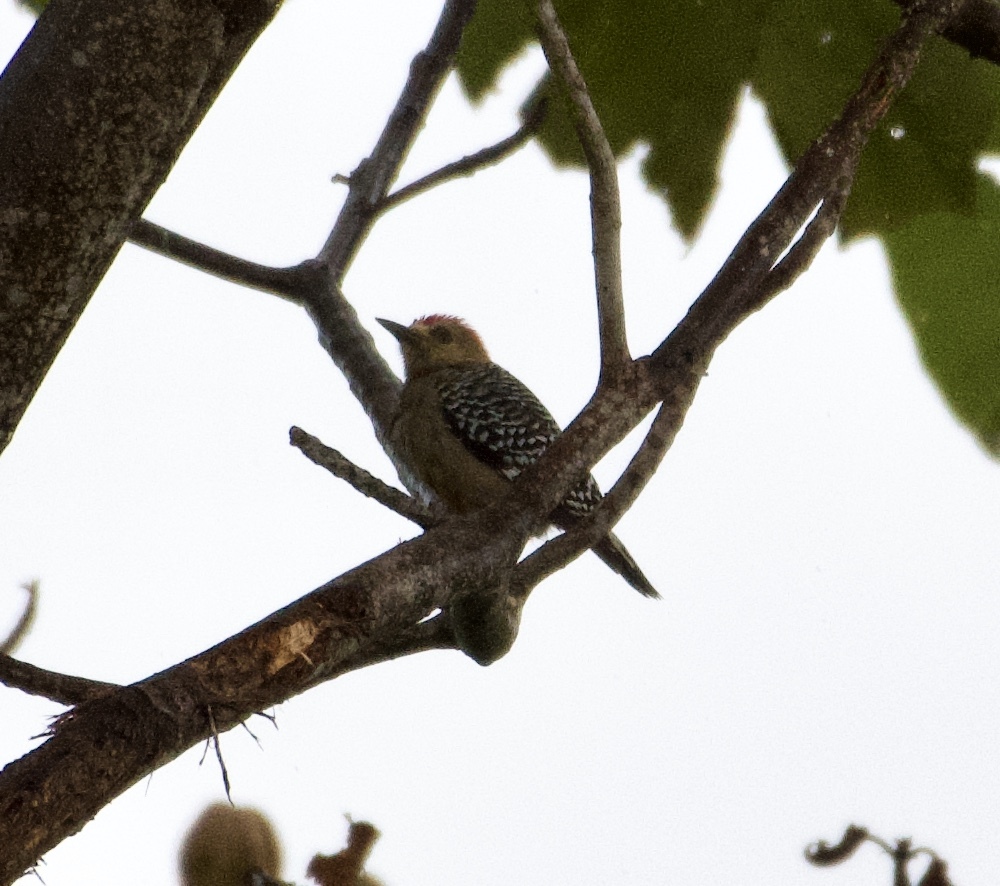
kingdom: Animalia
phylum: Chordata
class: Aves
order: Piciformes
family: Picidae
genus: Melanerpes
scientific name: Melanerpes rubricapillus
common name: Red-crowned woodpecker
